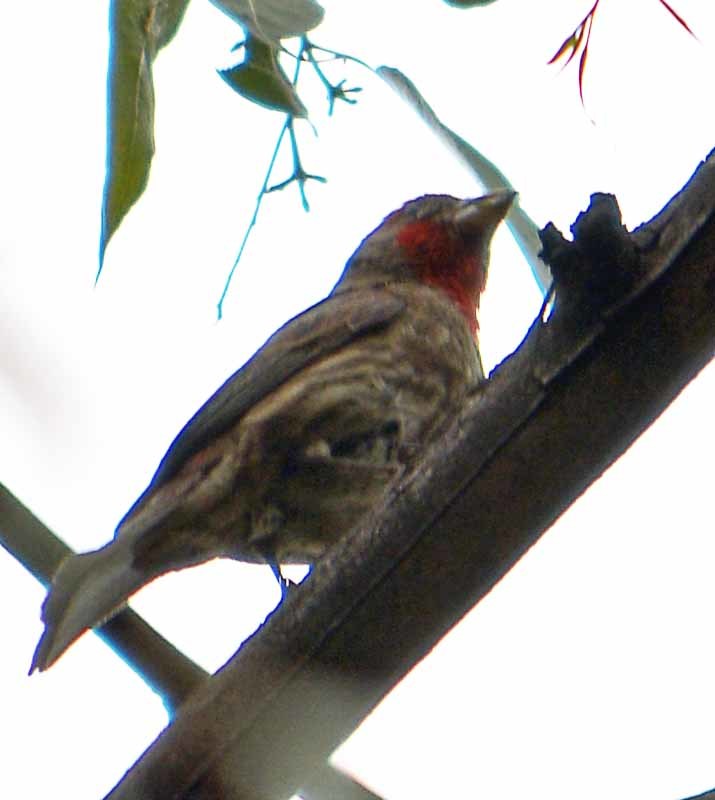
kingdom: Animalia
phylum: Chordata
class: Aves
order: Passeriformes
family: Fringillidae
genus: Haemorhous
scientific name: Haemorhous mexicanus
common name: House finch
